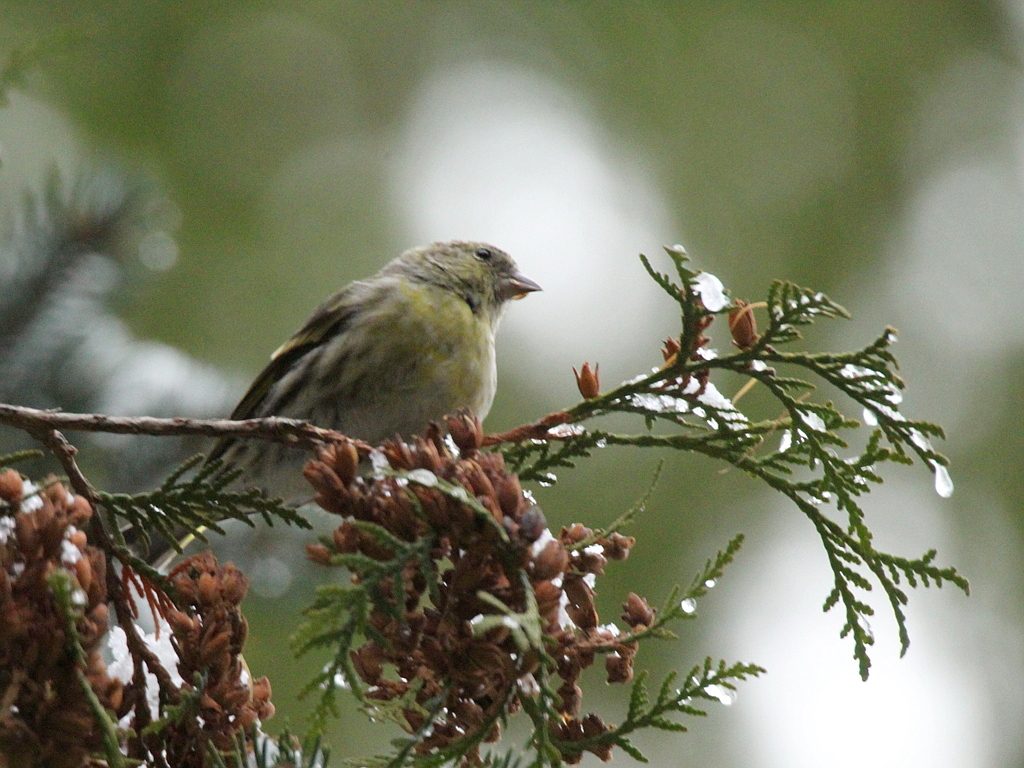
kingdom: Animalia
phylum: Chordata
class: Aves
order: Passeriformes
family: Fringillidae
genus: Spinus
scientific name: Spinus spinus
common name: Eurasian siskin
